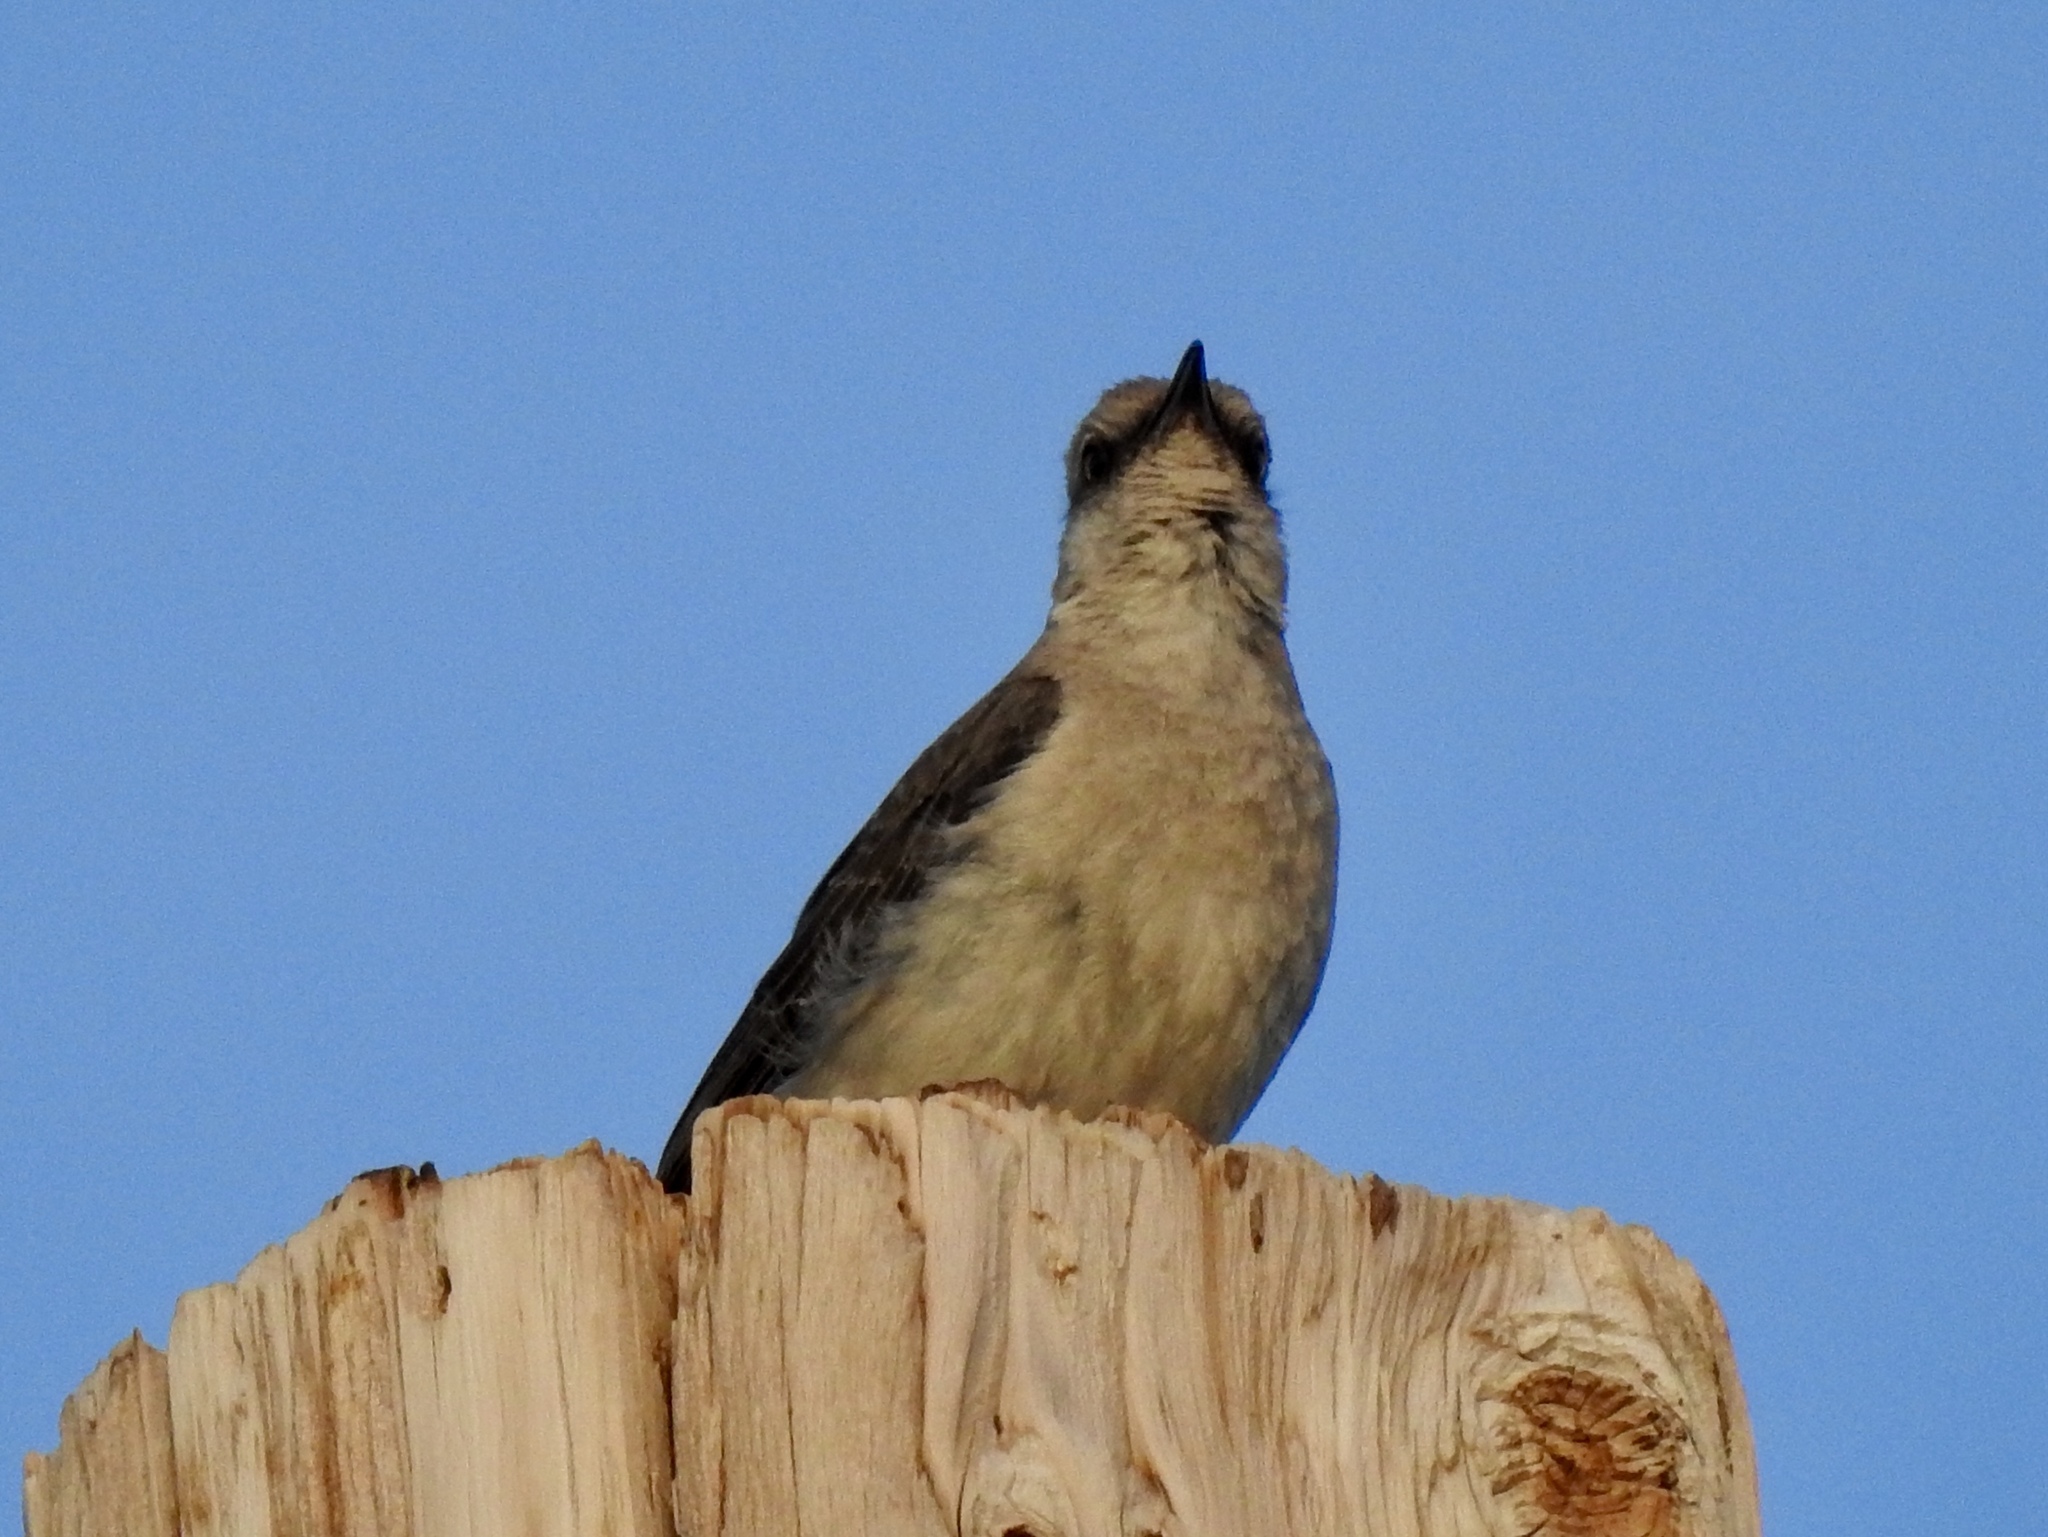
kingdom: Animalia
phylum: Chordata
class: Aves
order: Passeriformes
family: Mimidae
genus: Mimus
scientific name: Mimus polyglottos
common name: Northern mockingbird
